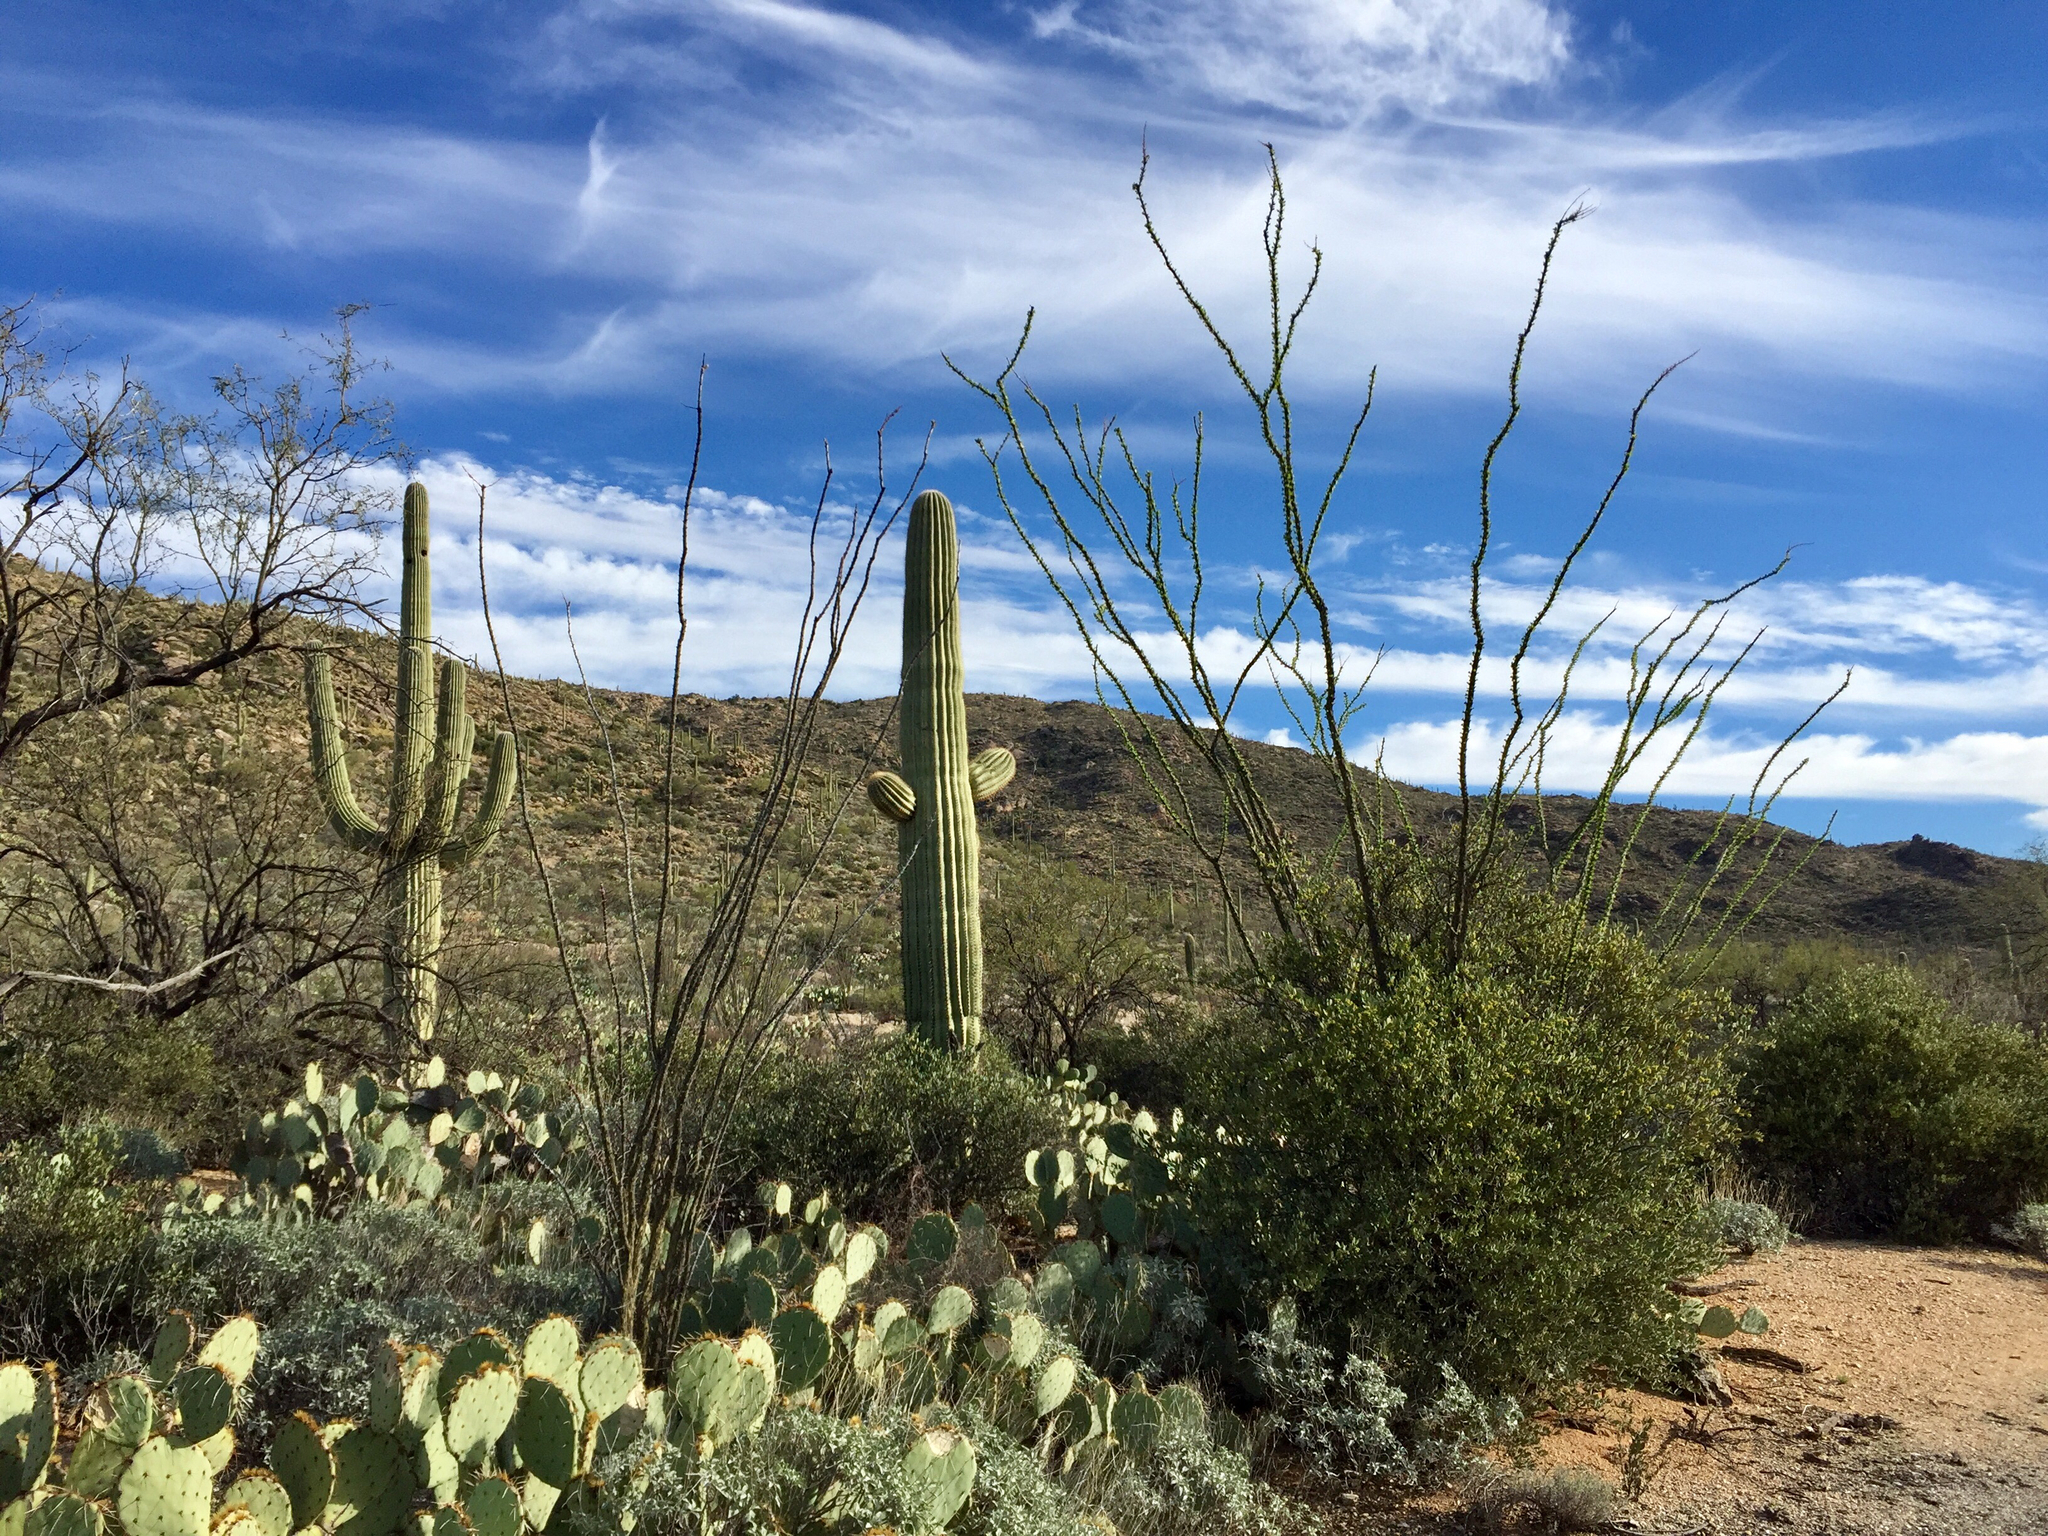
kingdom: Plantae
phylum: Tracheophyta
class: Magnoliopsida
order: Ericales
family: Fouquieriaceae
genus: Fouquieria
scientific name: Fouquieria splendens
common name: Vine-cactus
